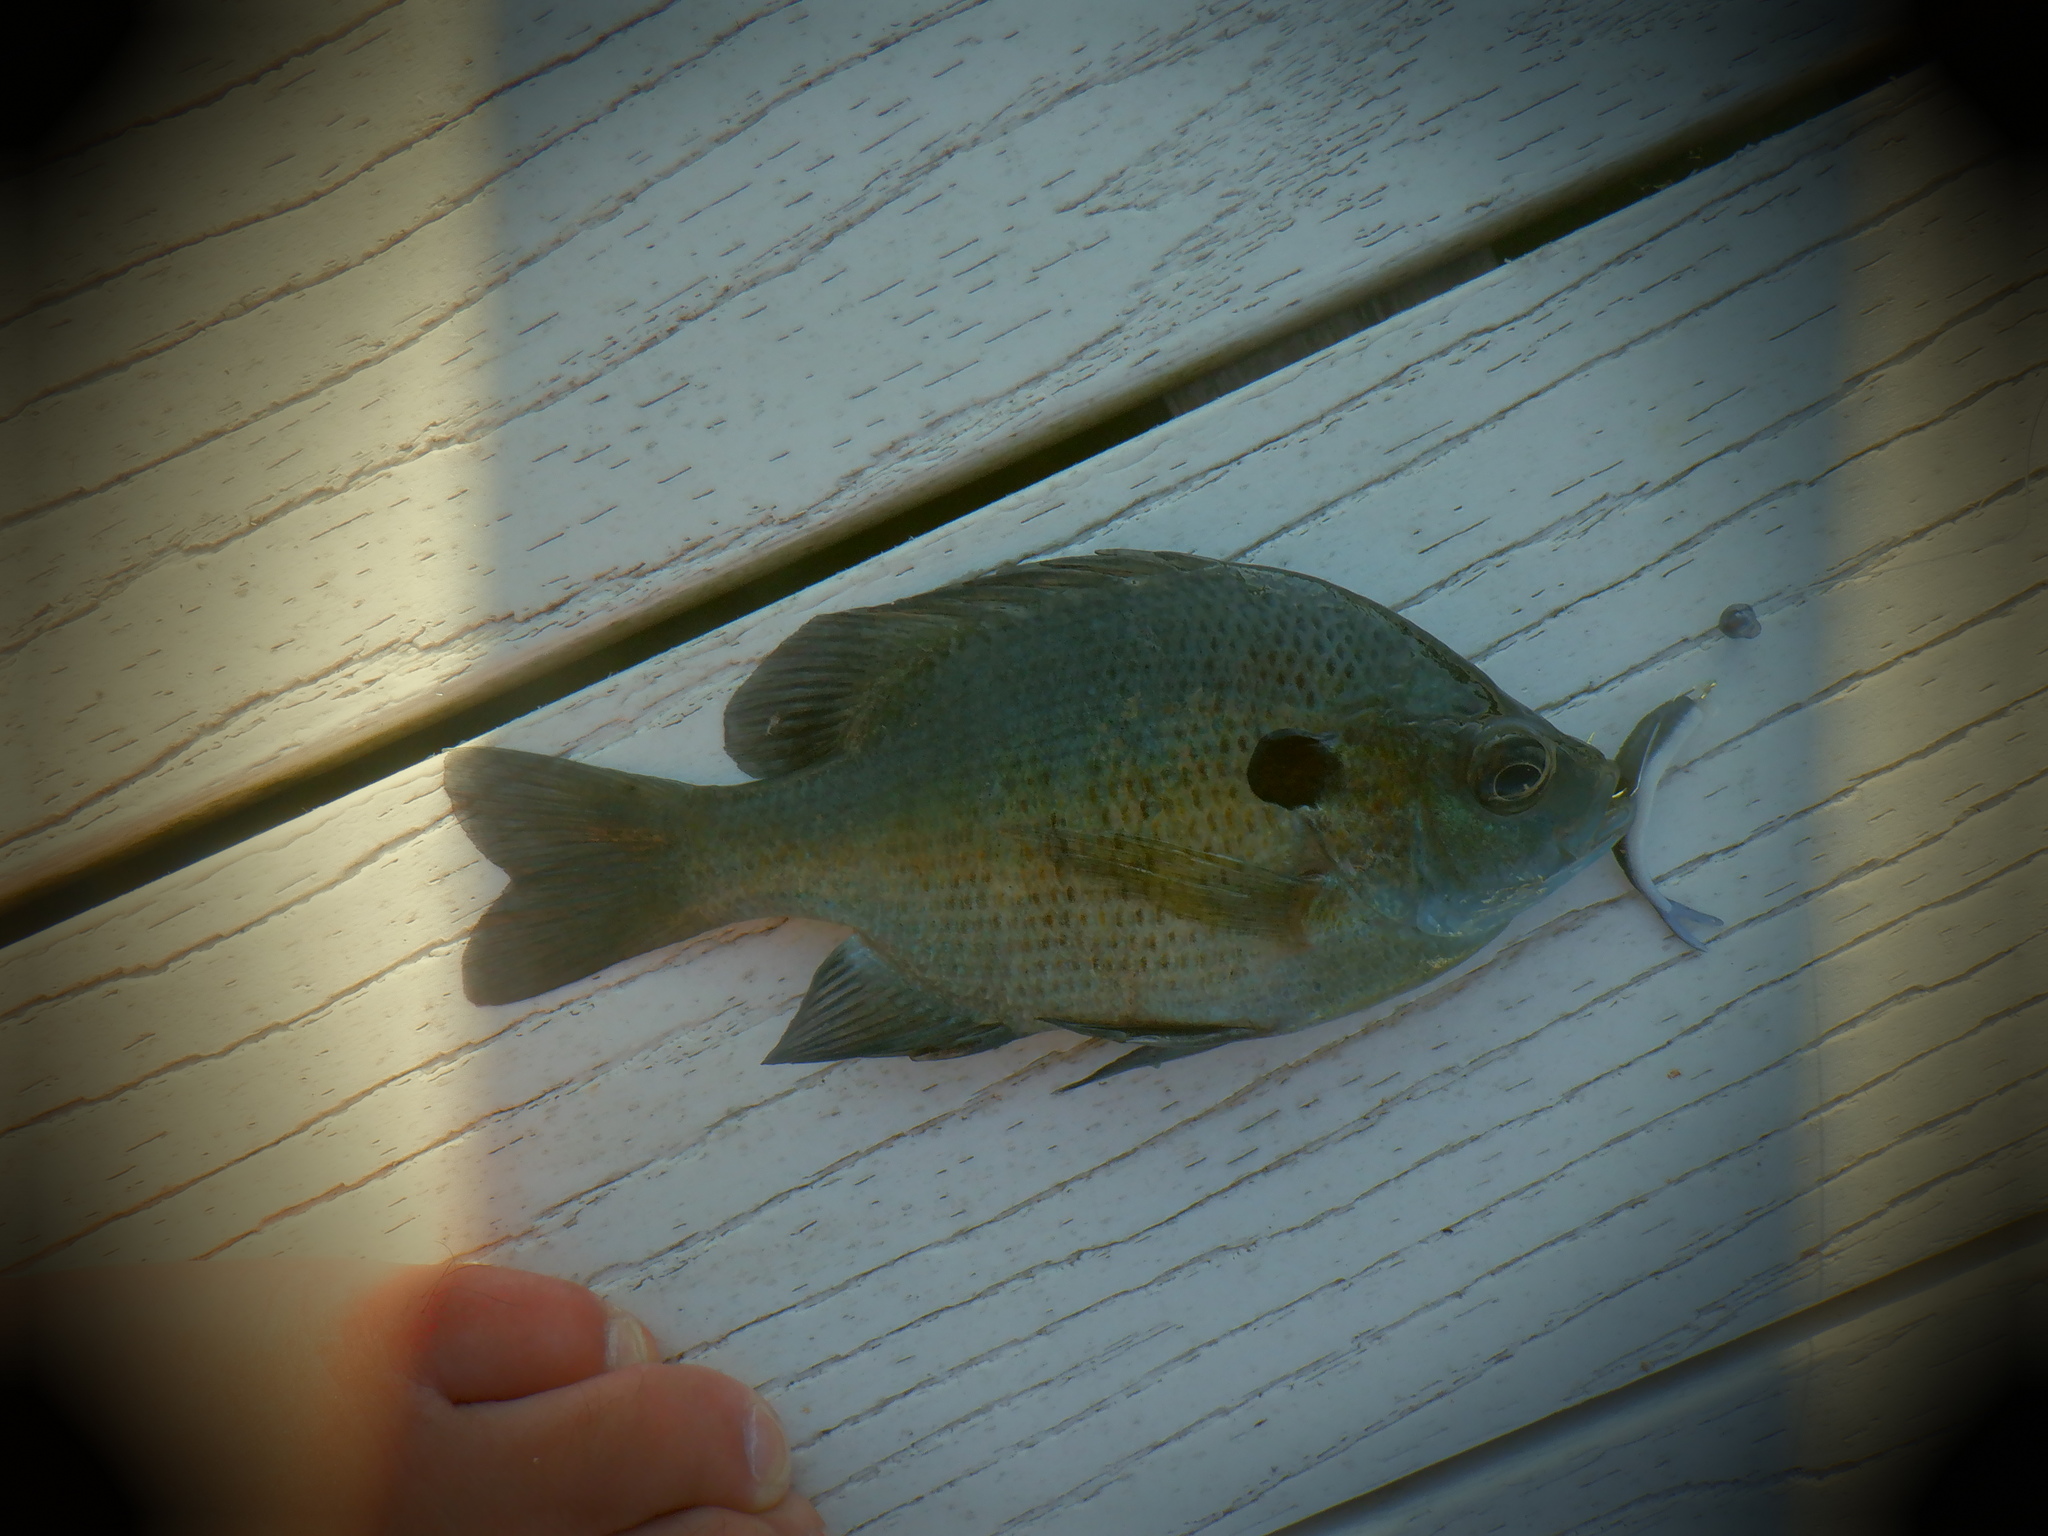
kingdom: Animalia
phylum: Chordata
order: Perciformes
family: Centrarchidae
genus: Lepomis
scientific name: Lepomis macrochirus
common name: Bluegill
